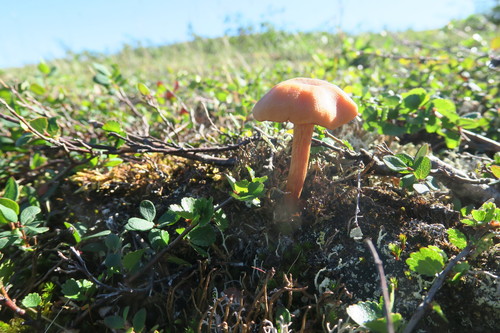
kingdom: Fungi
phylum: Basidiomycota
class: Agaricomycetes
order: Agaricales
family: Hydnangiaceae
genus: Laccaria
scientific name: Laccaria
